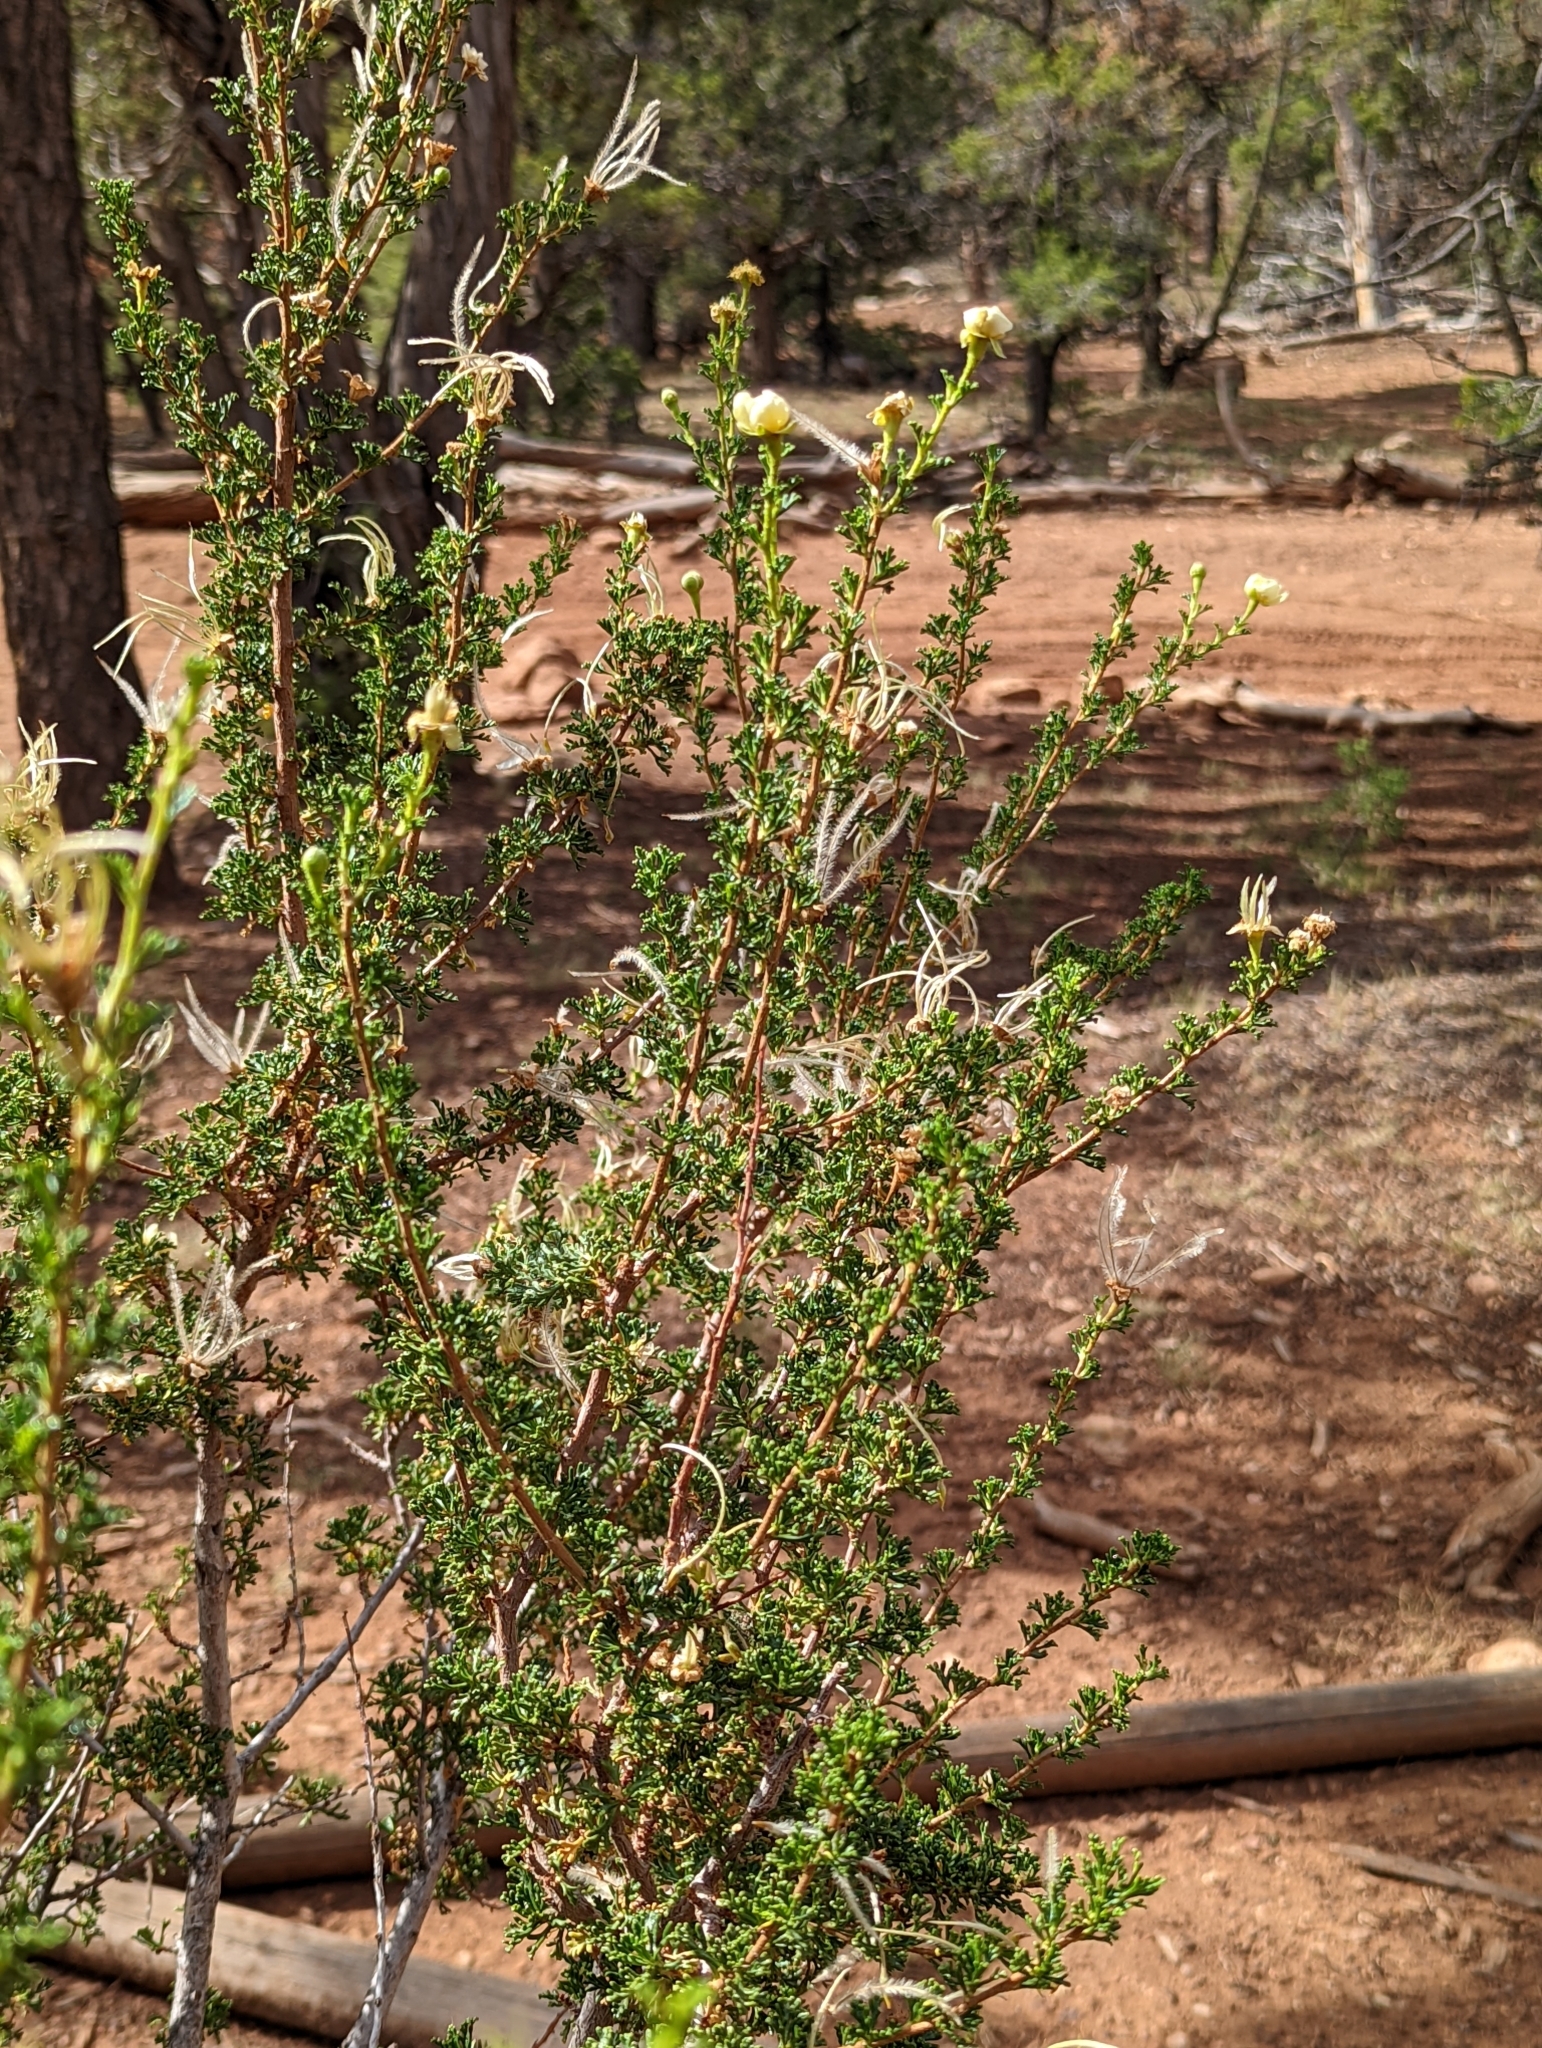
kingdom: Plantae
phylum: Tracheophyta
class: Magnoliopsida
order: Rosales
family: Rosaceae
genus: Purshia
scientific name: Purshia stansburiana
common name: Stansbury's cliffrose
